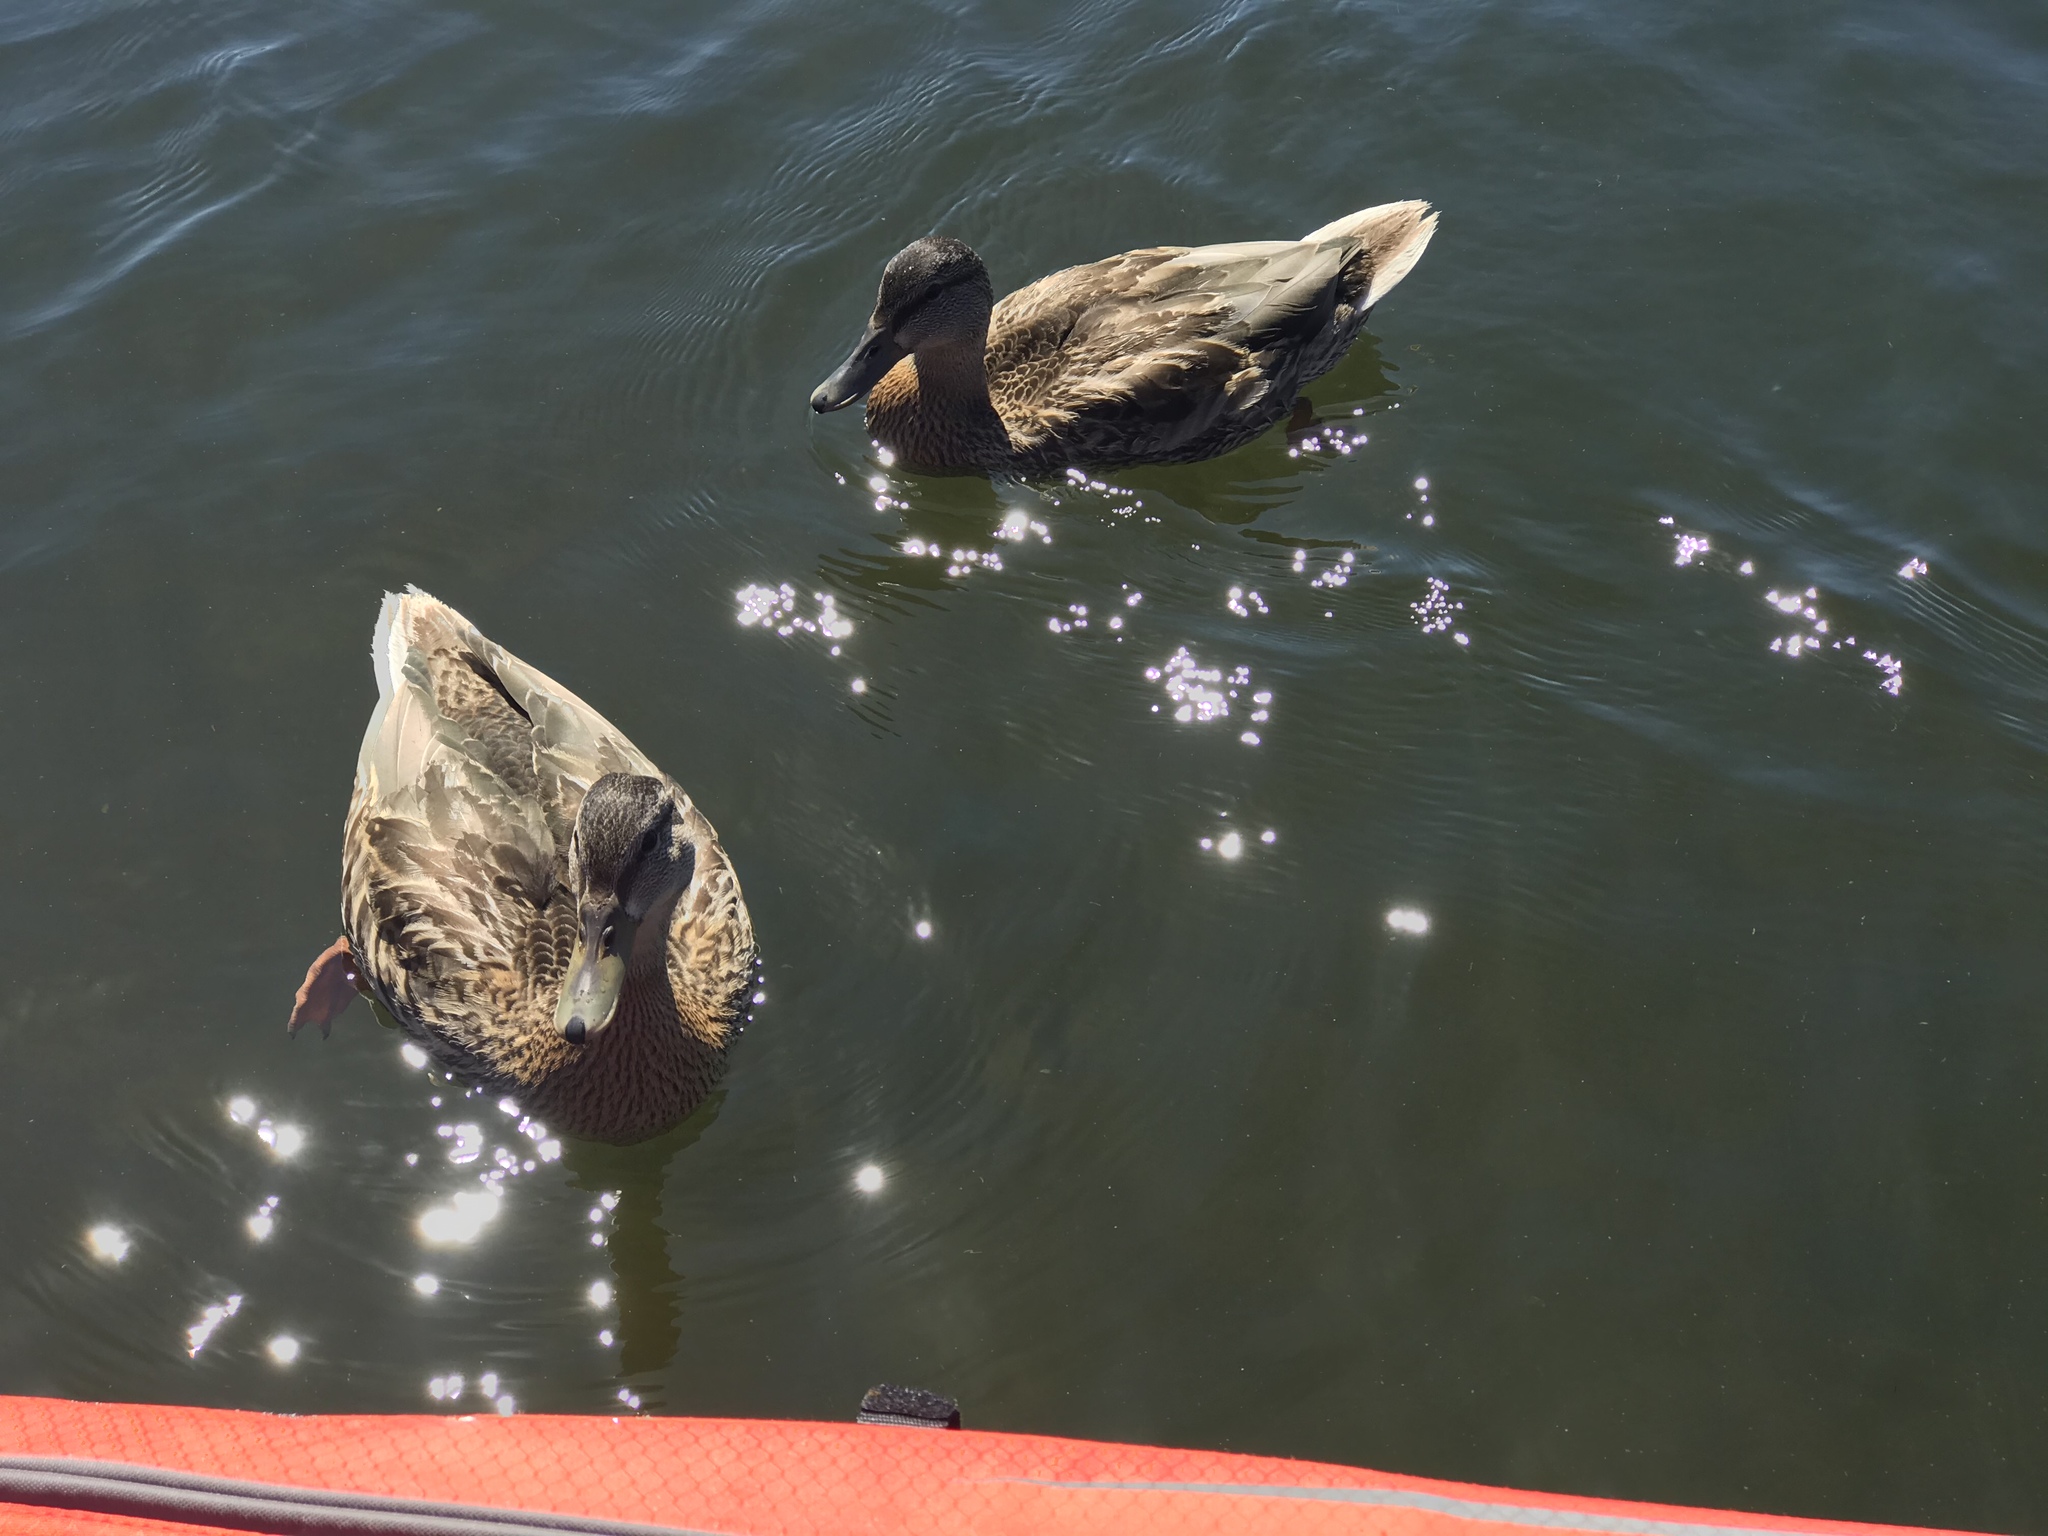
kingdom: Animalia
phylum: Chordata
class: Aves
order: Anseriformes
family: Anatidae
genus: Anas
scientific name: Anas platyrhynchos
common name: Mallard
